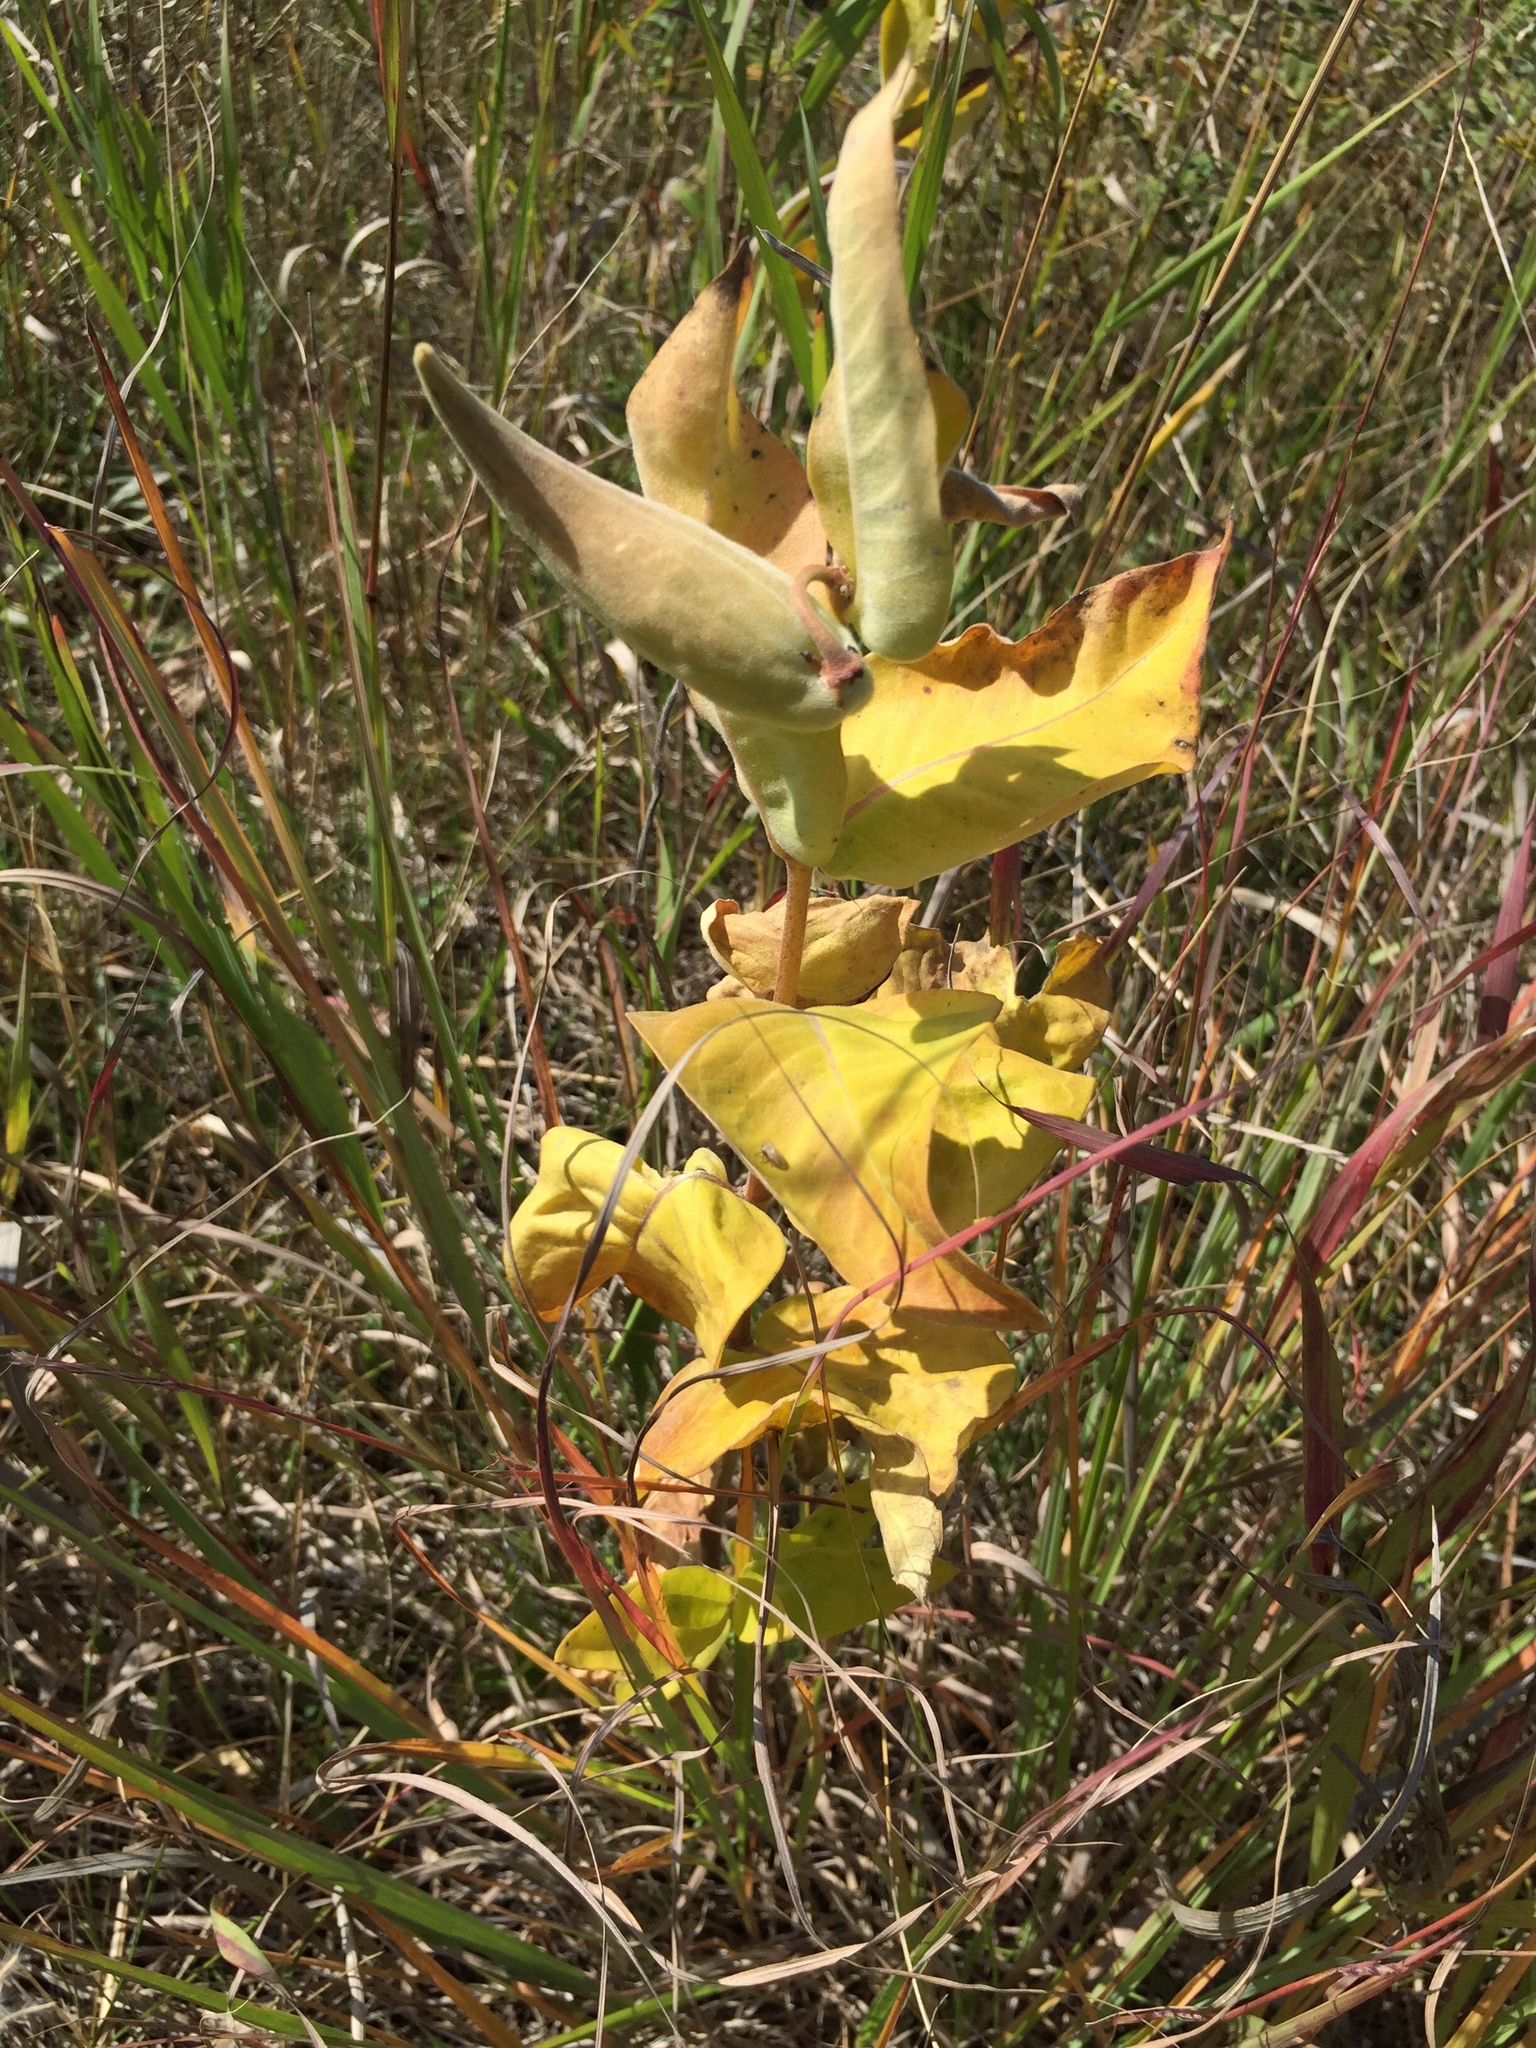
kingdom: Plantae
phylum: Tracheophyta
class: Magnoliopsida
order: Gentianales
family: Apocynaceae
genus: Asclepias
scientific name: Asclepias ovalifolia
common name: Dwarf milkweed
